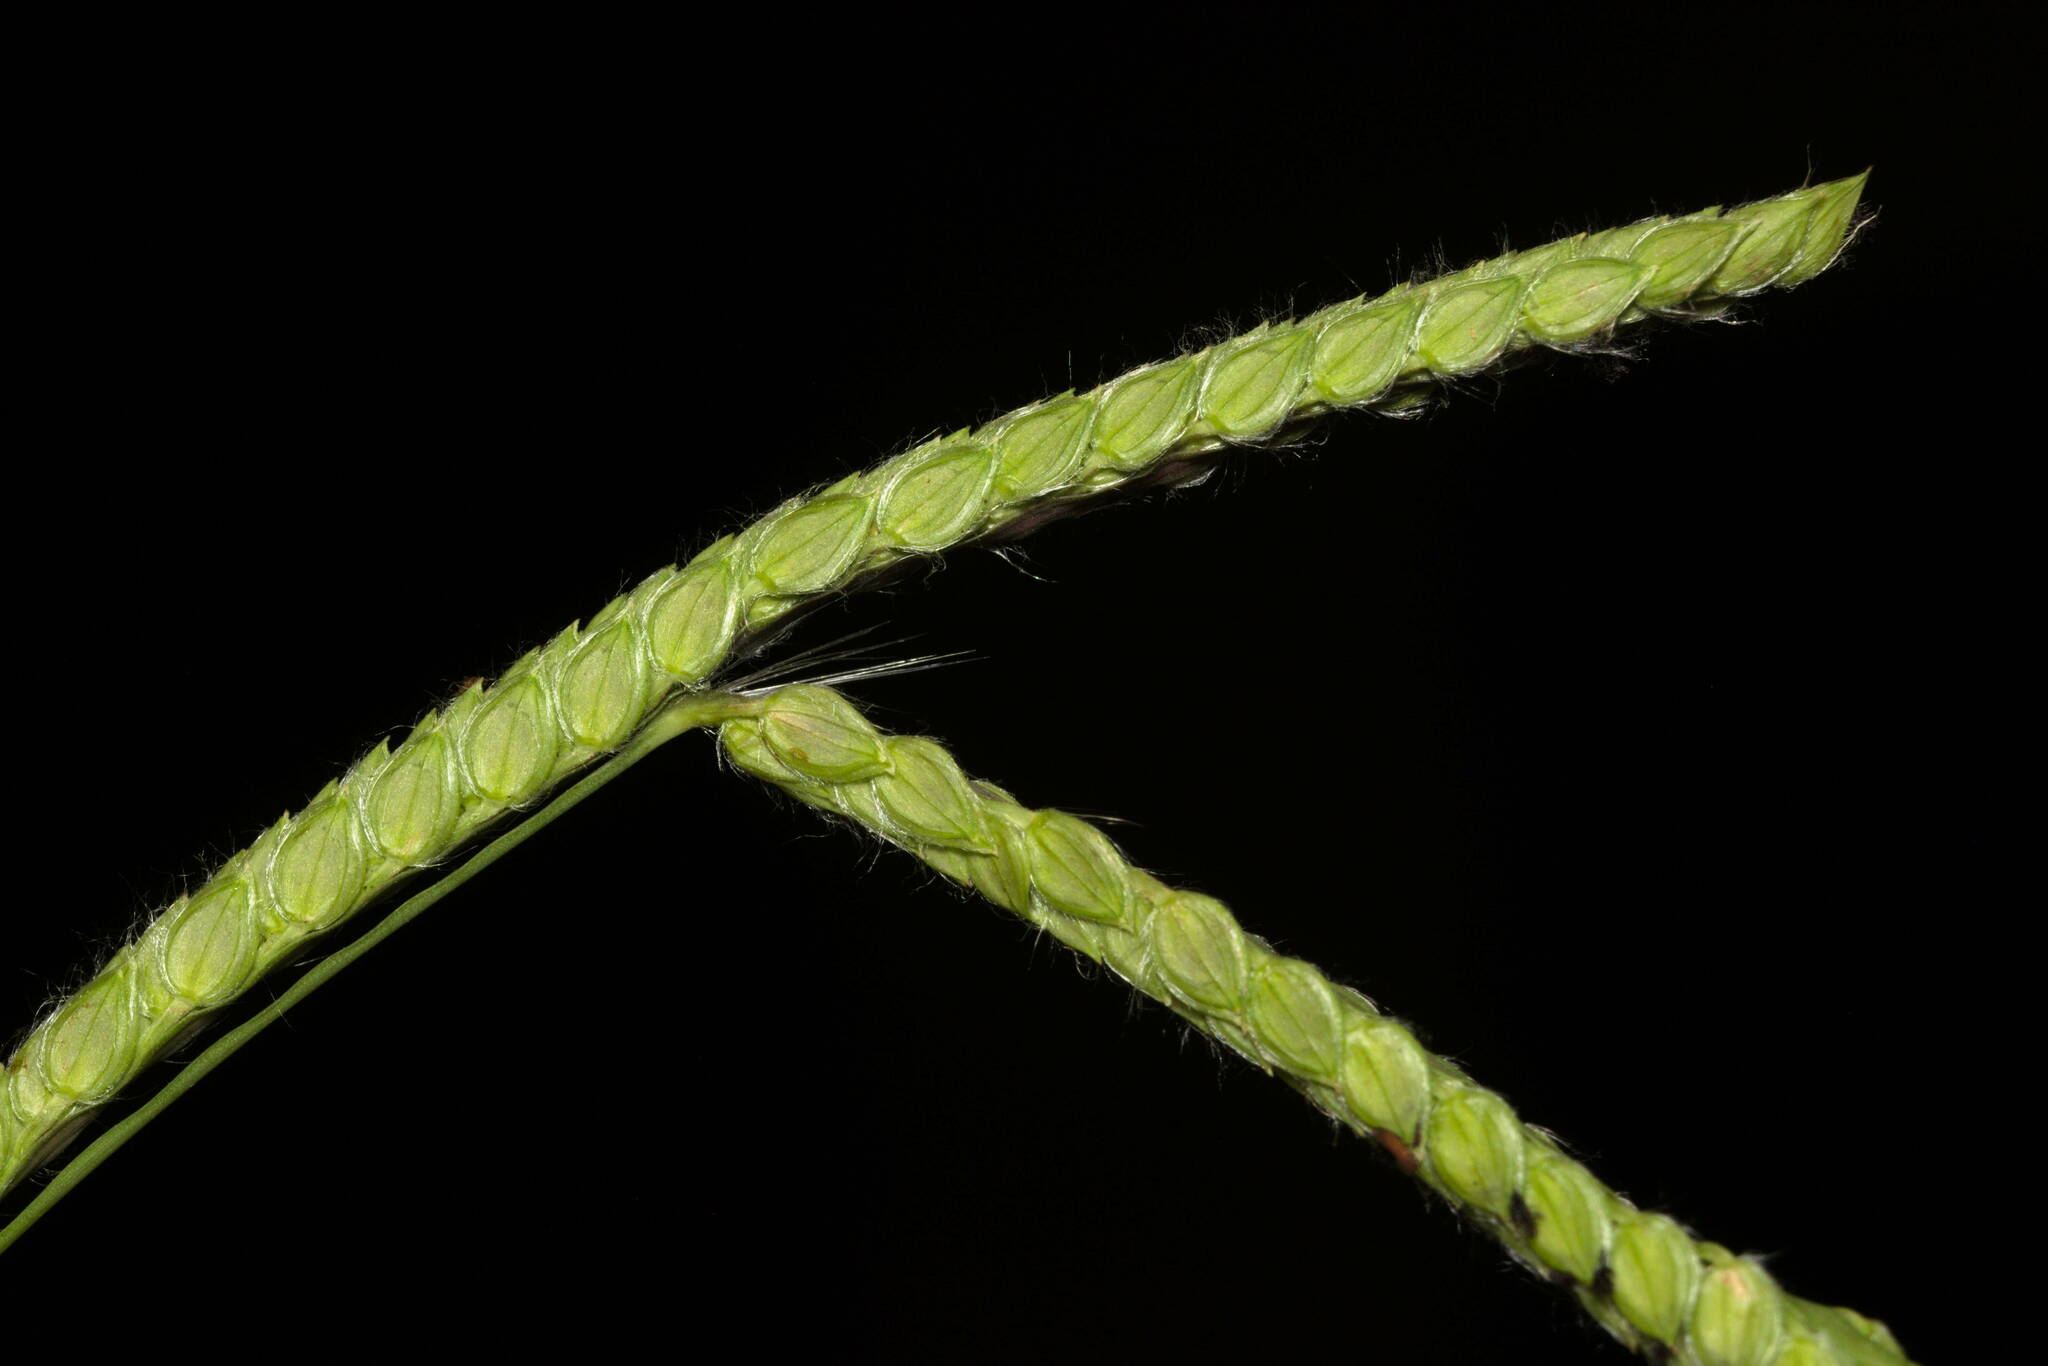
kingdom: Plantae
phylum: Tracheophyta
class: Liliopsida
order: Poales
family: Poaceae
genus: Paspalum
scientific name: Paspalum dilatatum
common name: Dallisgrass
